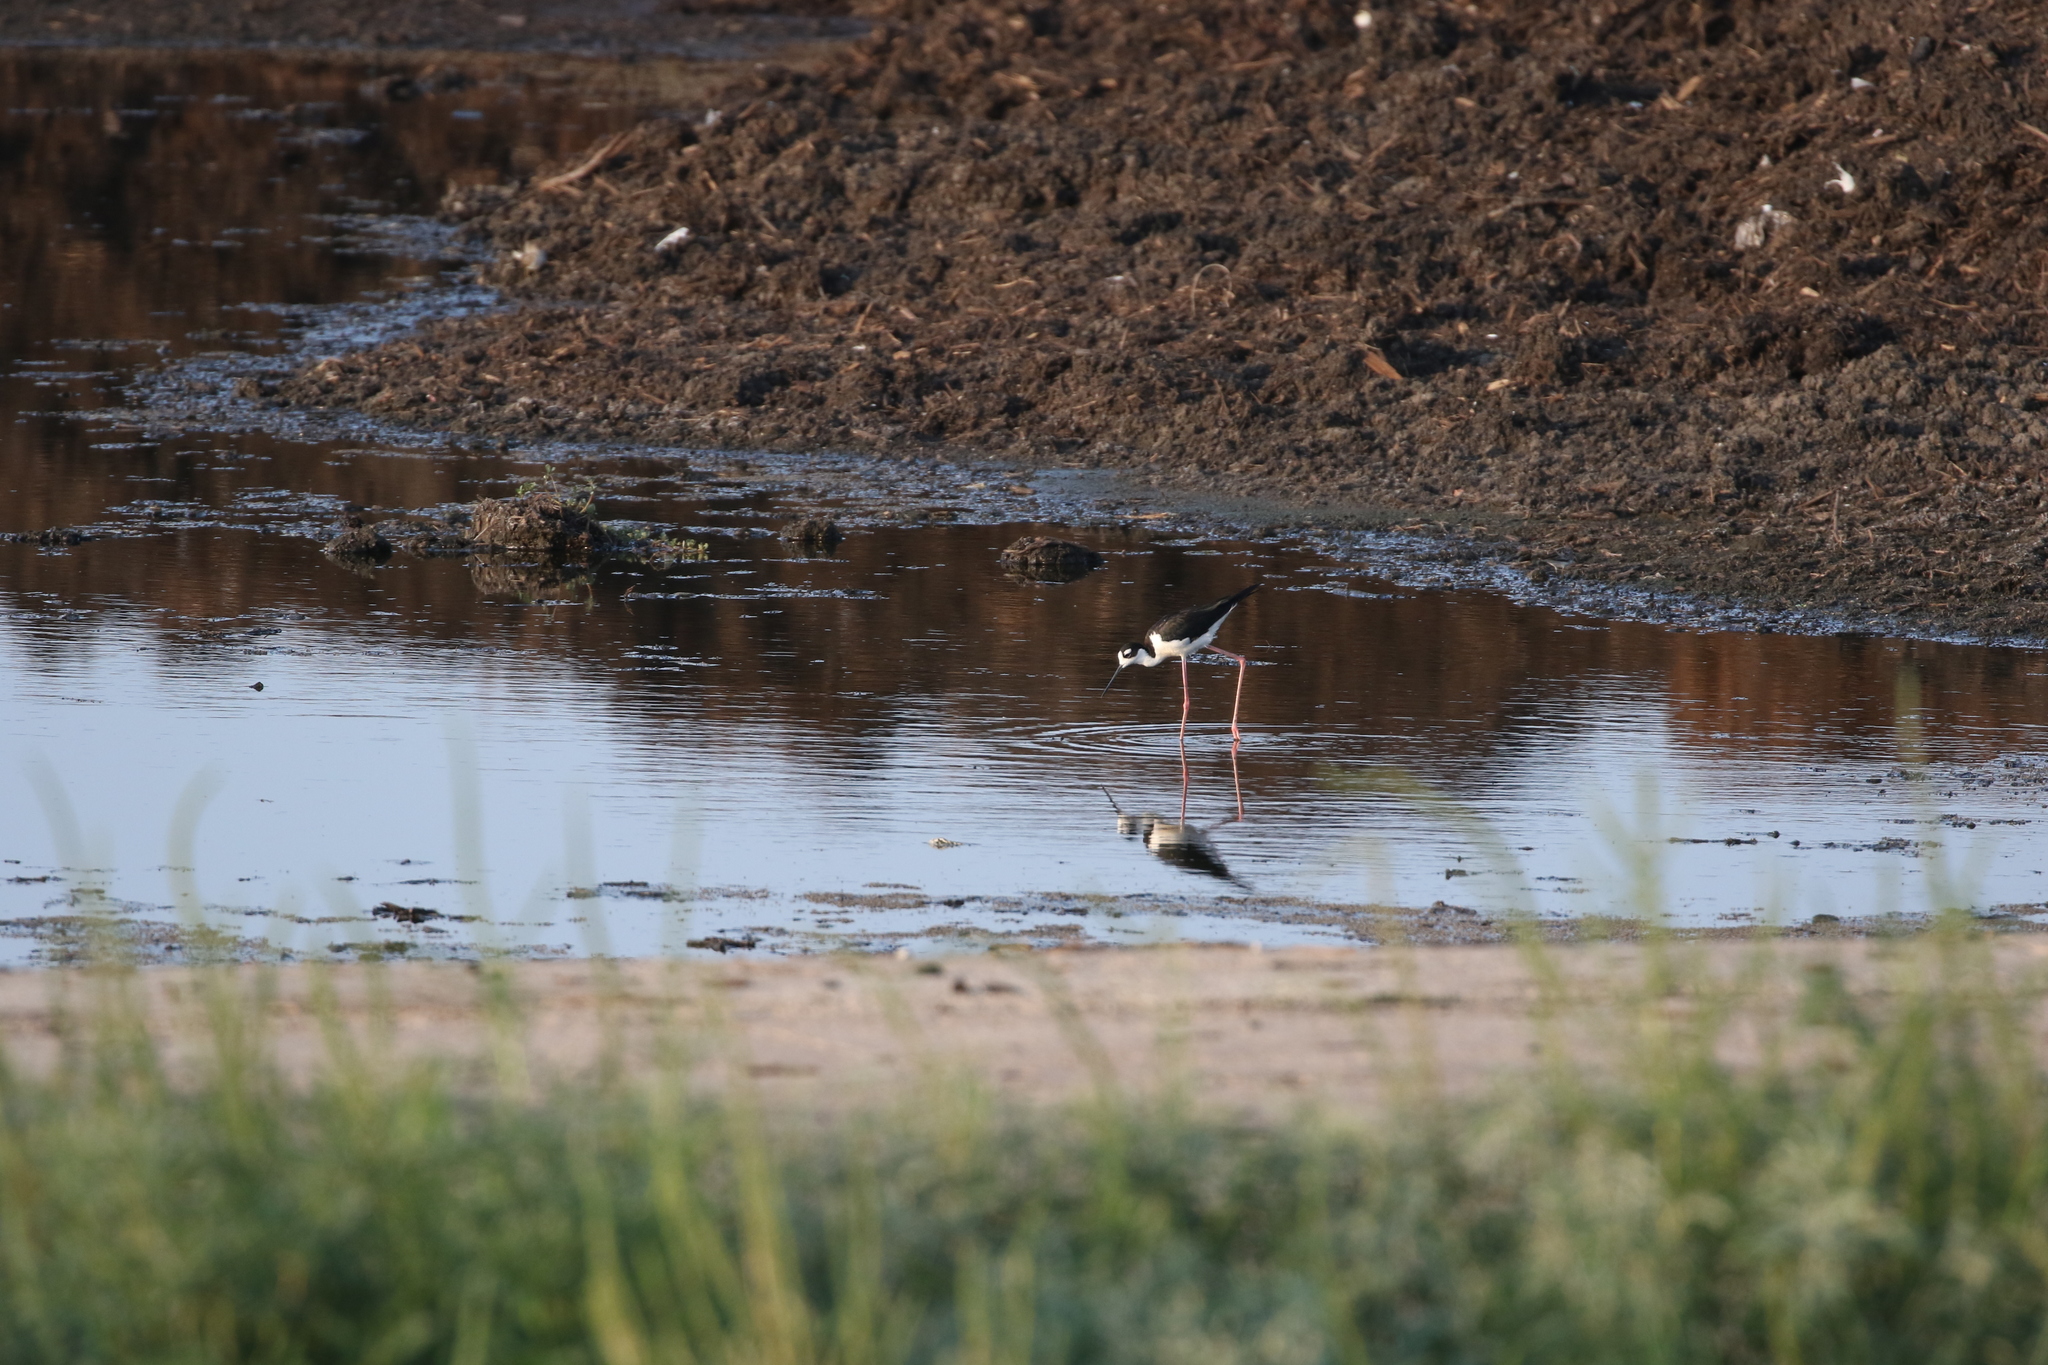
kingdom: Animalia
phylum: Chordata
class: Aves
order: Charadriiformes
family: Recurvirostridae
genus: Himantopus
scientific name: Himantopus mexicanus
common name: Black-necked stilt
